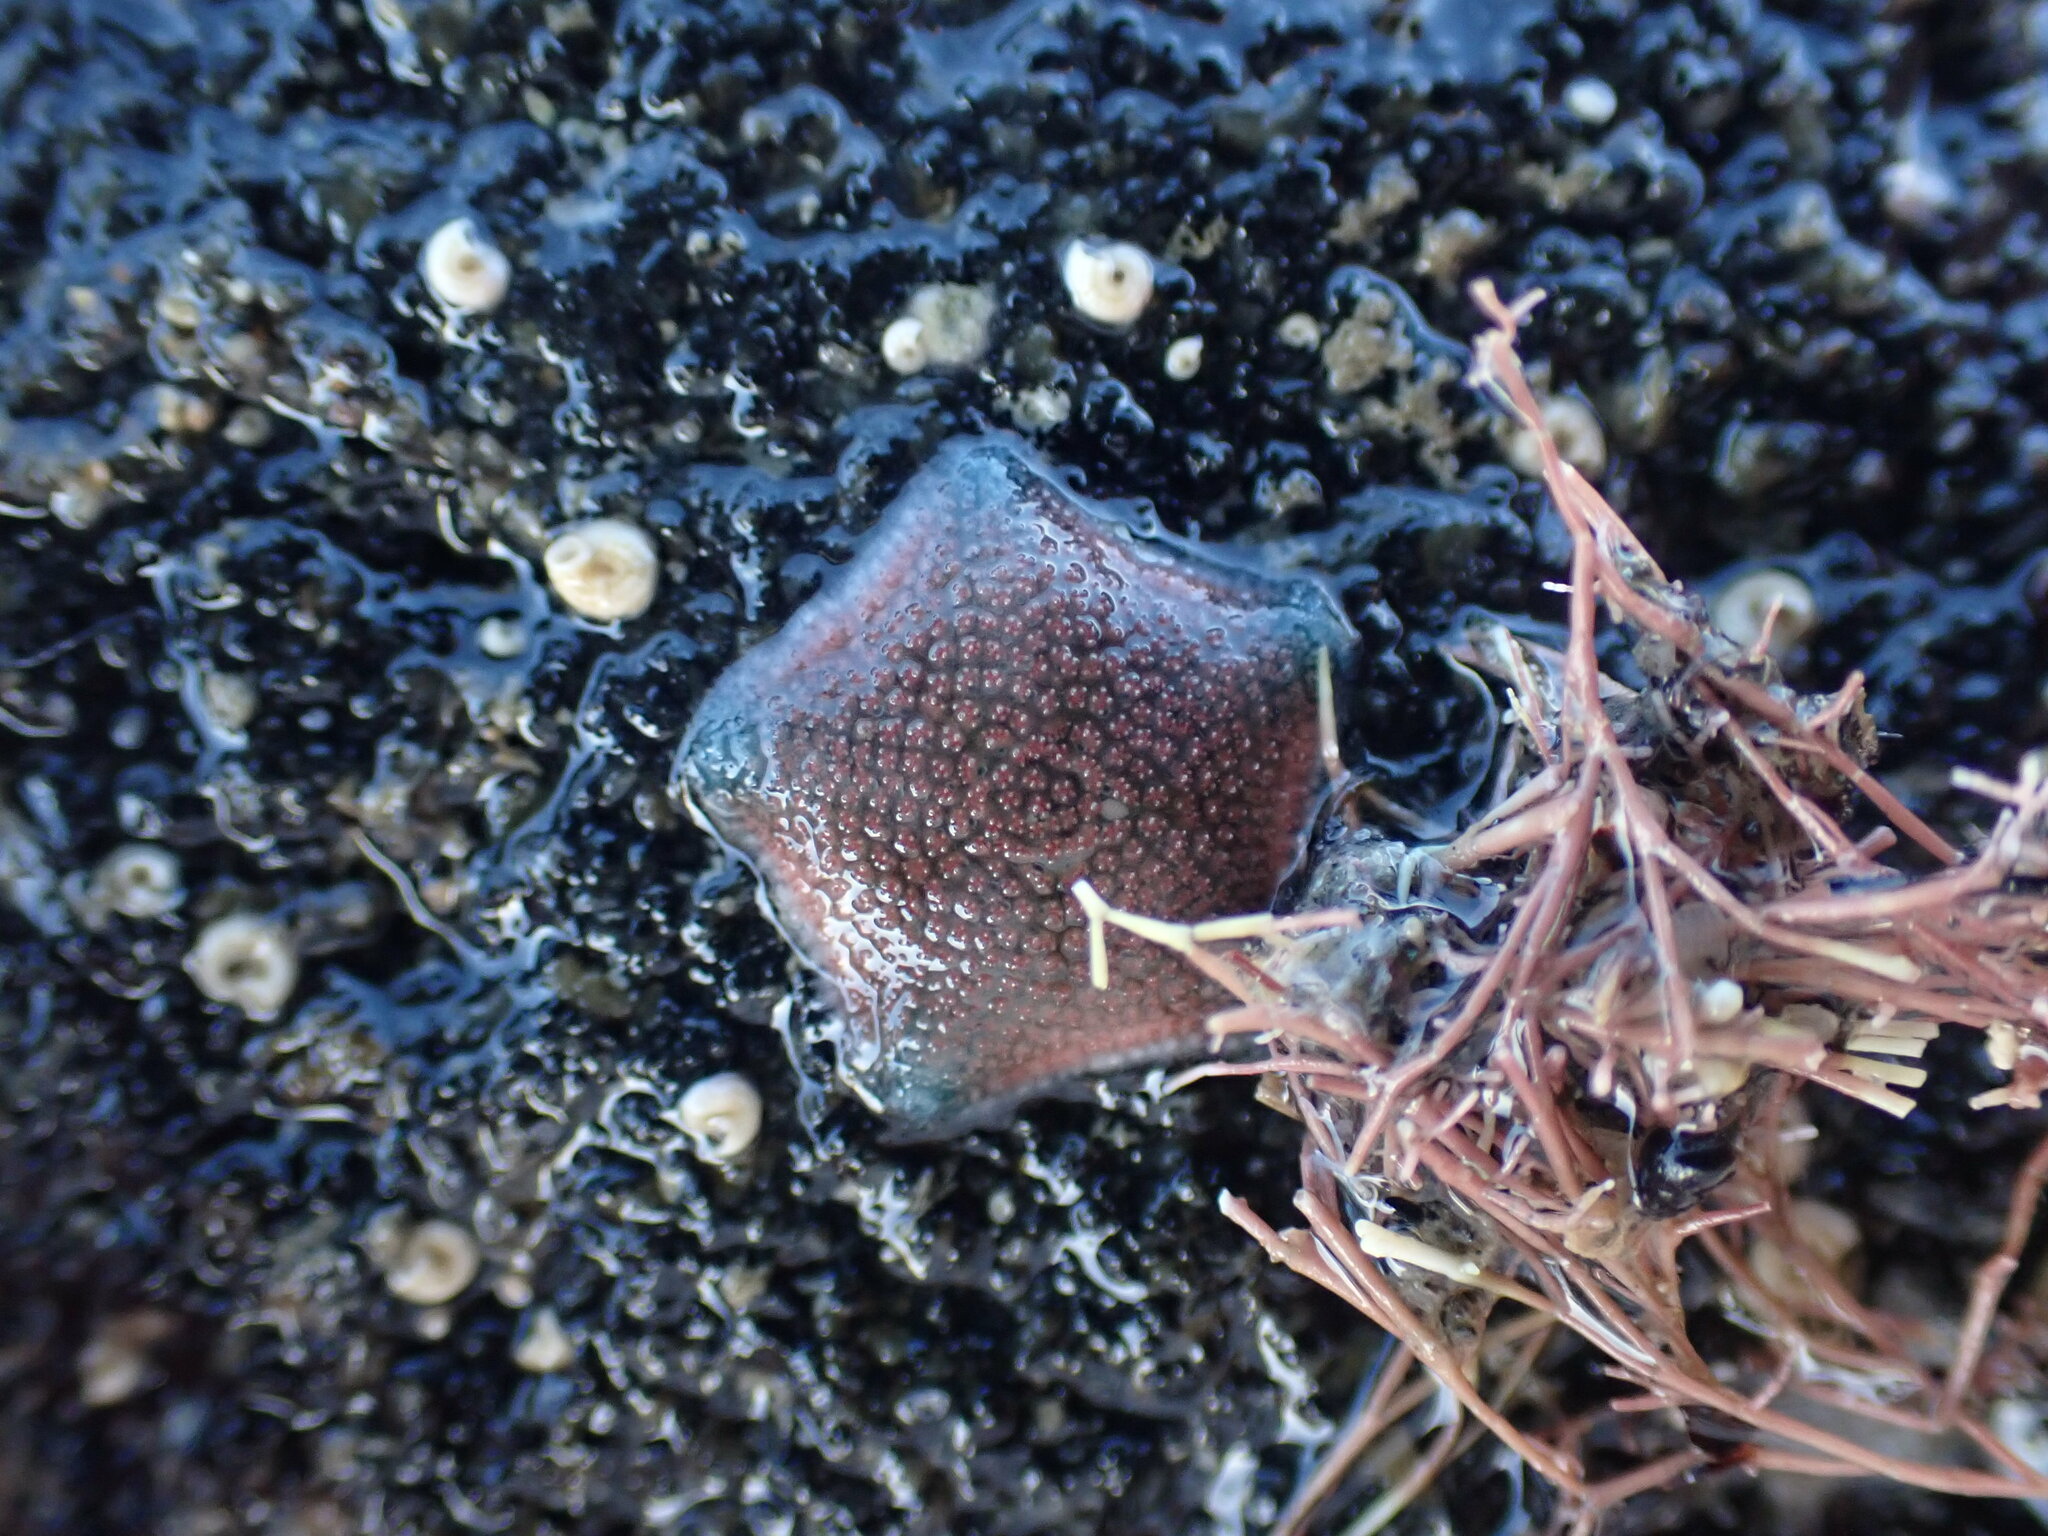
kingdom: Animalia
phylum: Echinodermata
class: Asteroidea
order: Valvatida
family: Asterinidae
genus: Patiriella
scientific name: Patiriella regularis
